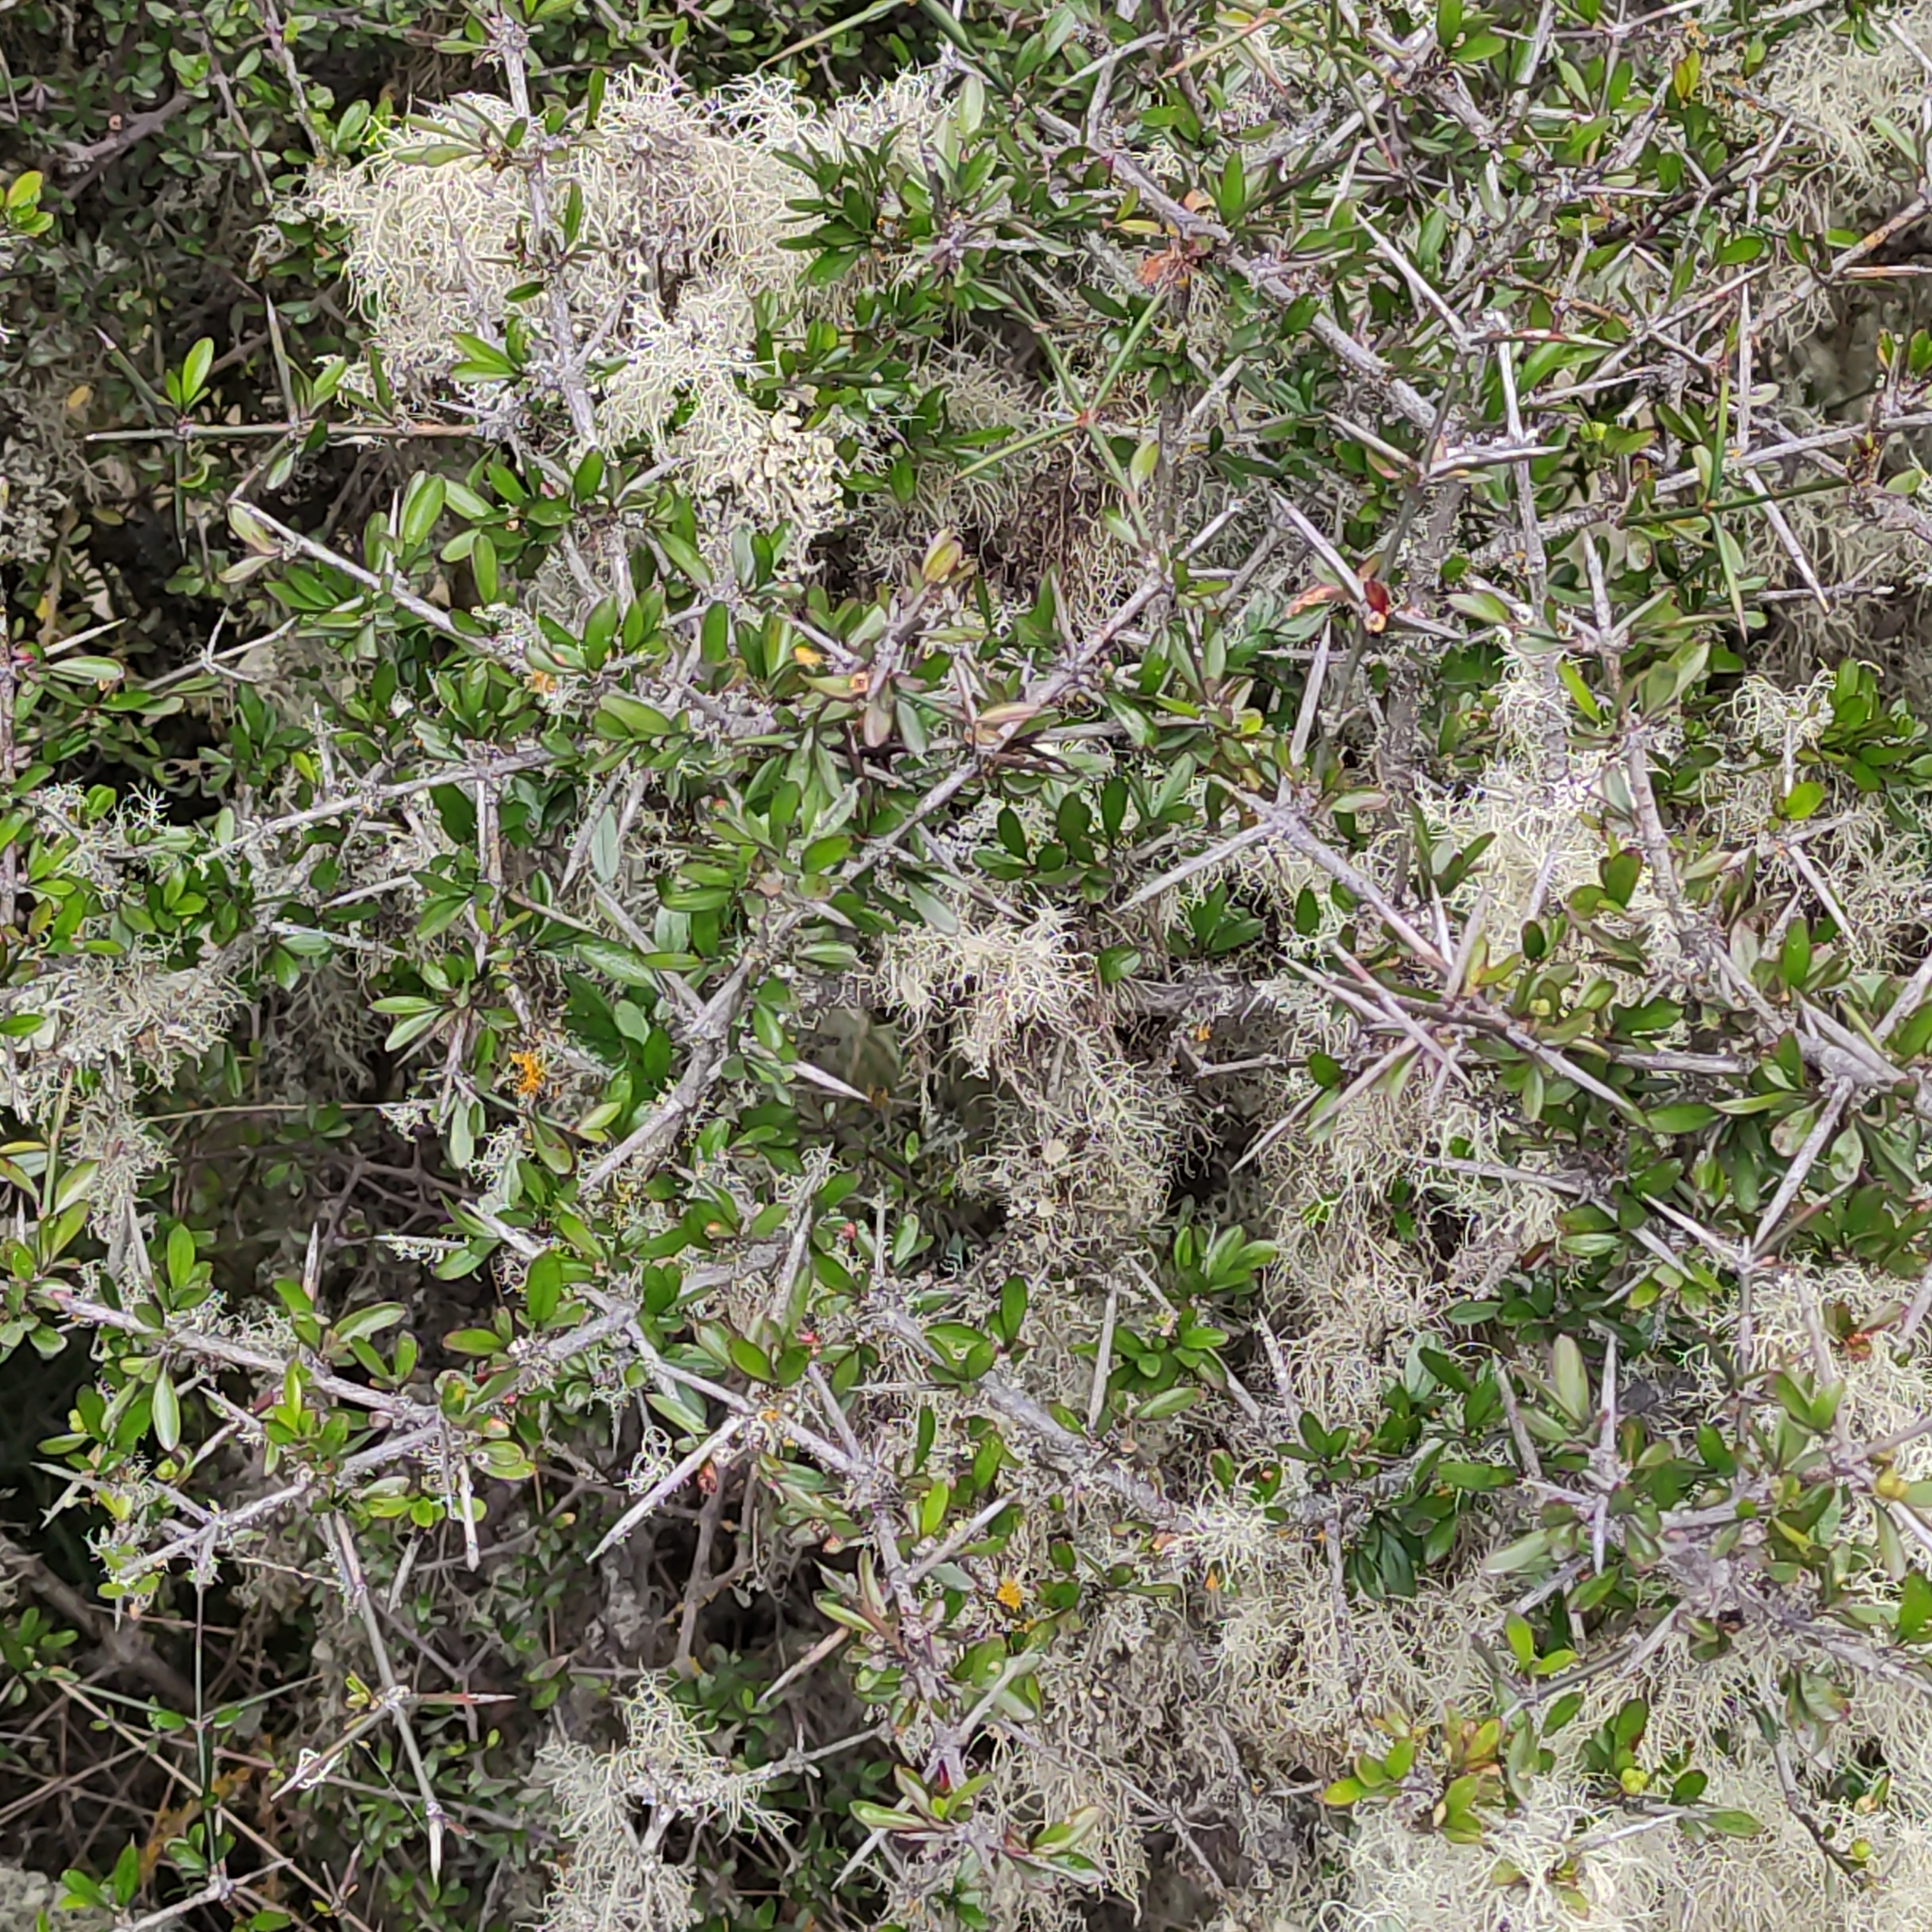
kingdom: Plantae
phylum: Tracheophyta
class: Magnoliopsida
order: Rosales
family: Rhamnaceae
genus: Discaria
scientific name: Discaria toumatou
